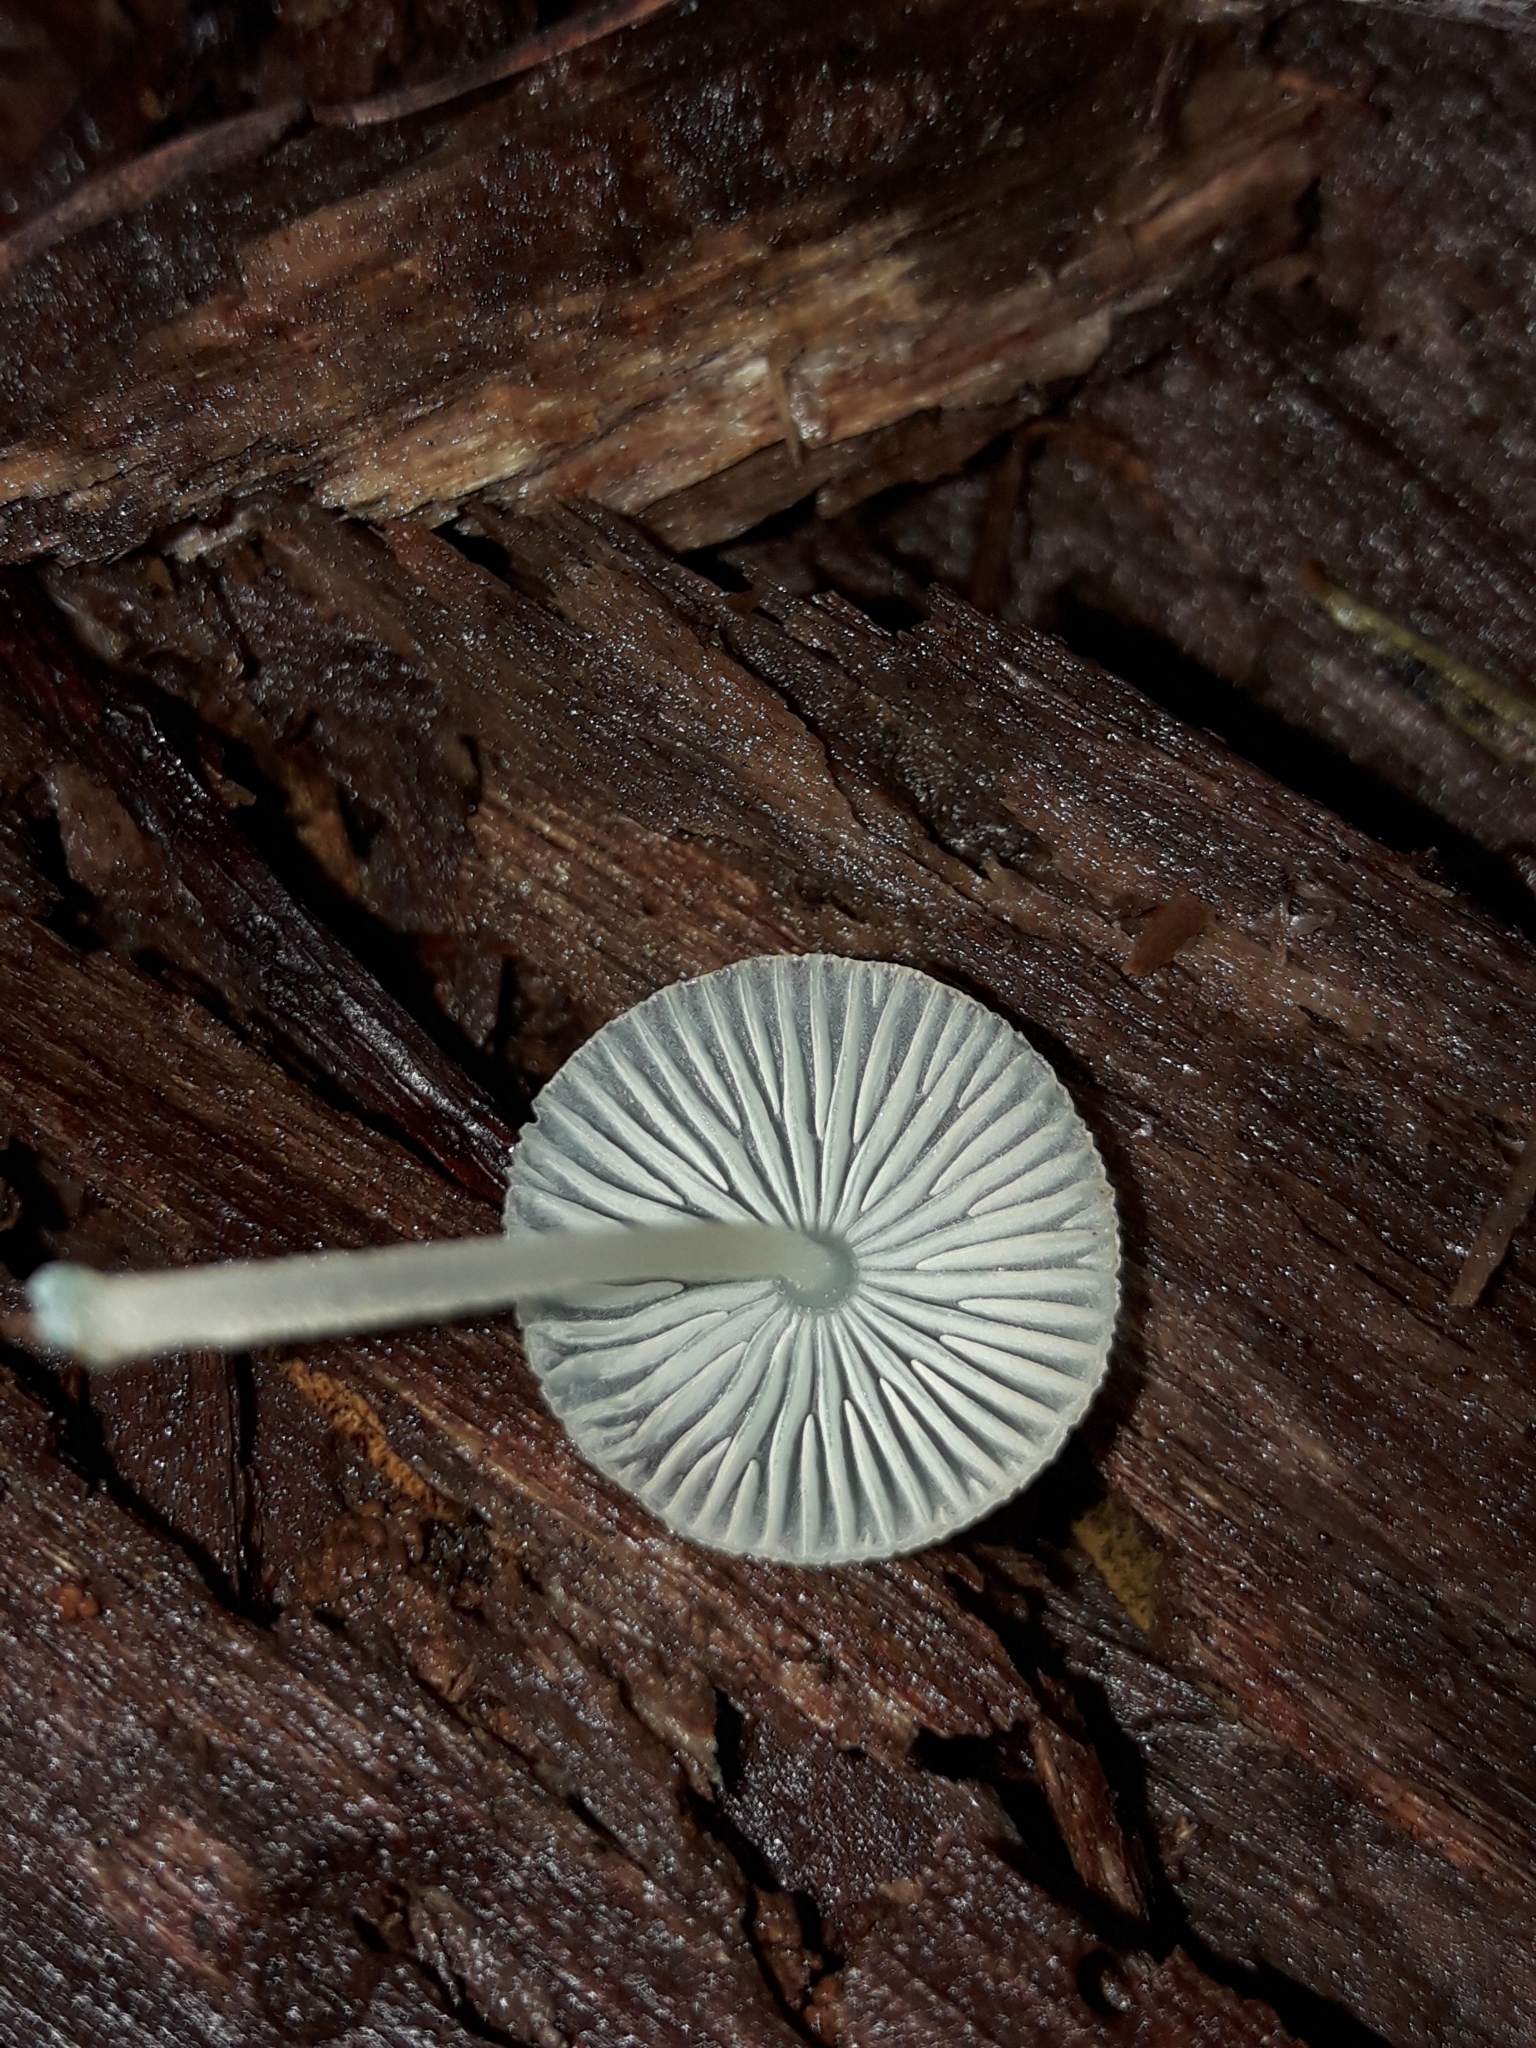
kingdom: Fungi
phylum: Basidiomycota
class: Agaricomycetes
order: Agaricales
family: Mycenaceae
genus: Mycena
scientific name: Mycena interrupta
